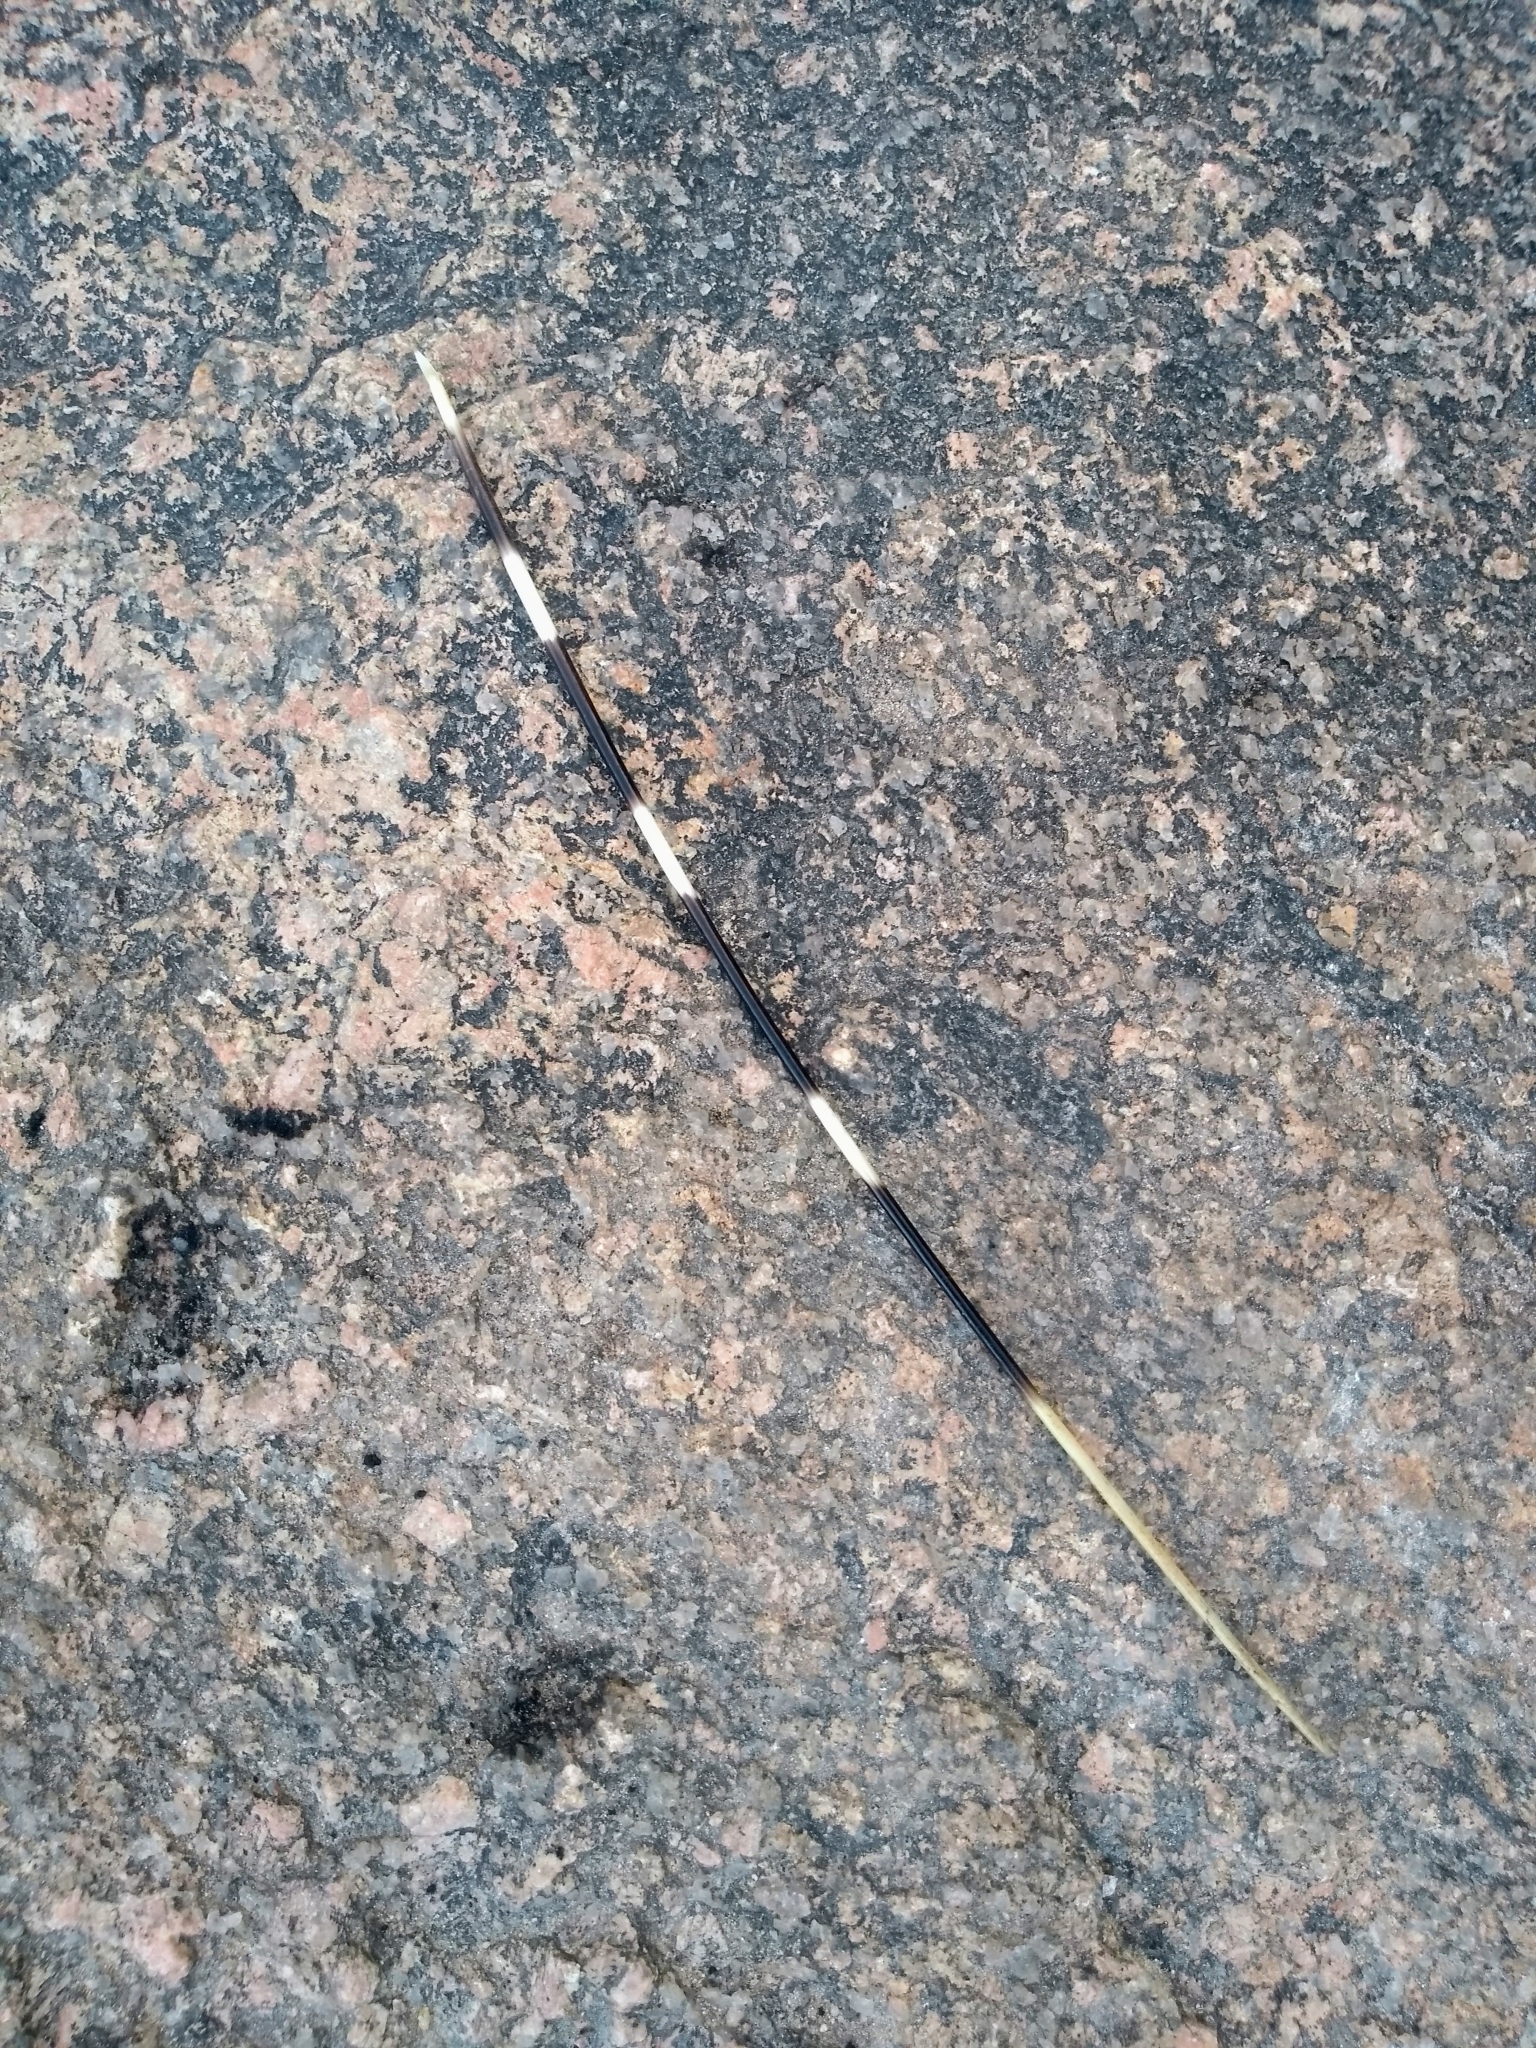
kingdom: Animalia
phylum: Chordata
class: Mammalia
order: Rodentia
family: Hystricidae
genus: Hystrix
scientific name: Hystrix indica
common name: Indian crested porcupine
